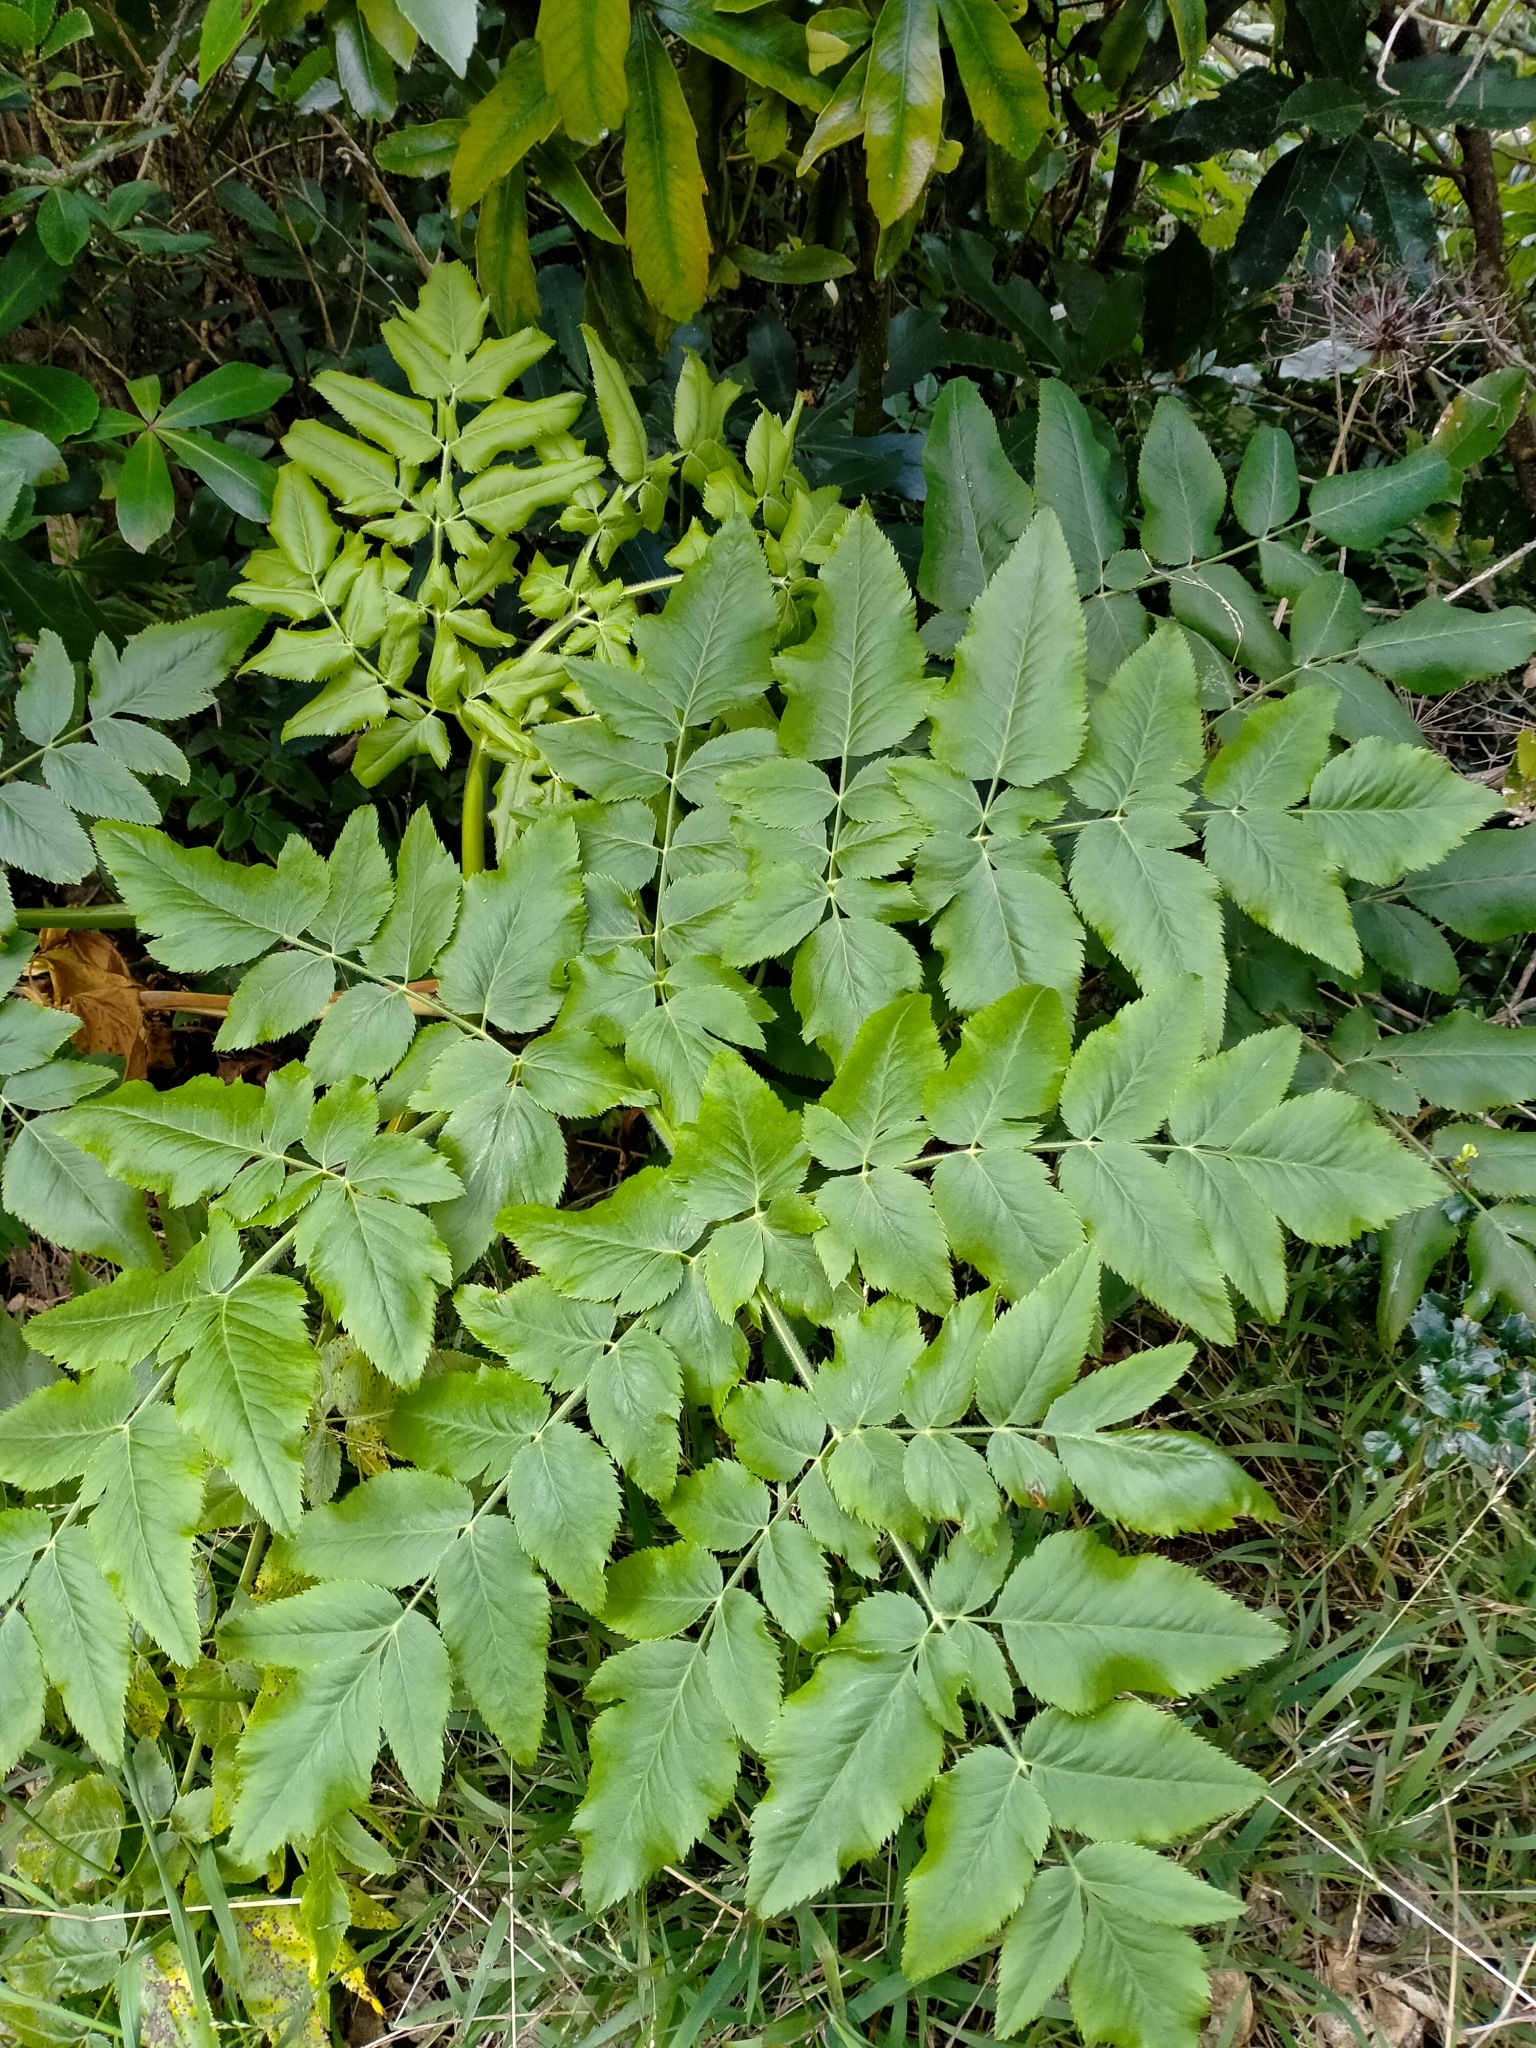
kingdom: Plantae
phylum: Tracheophyta
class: Magnoliopsida
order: Apiales
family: Apiaceae
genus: Daucus
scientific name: Daucus decipiens
